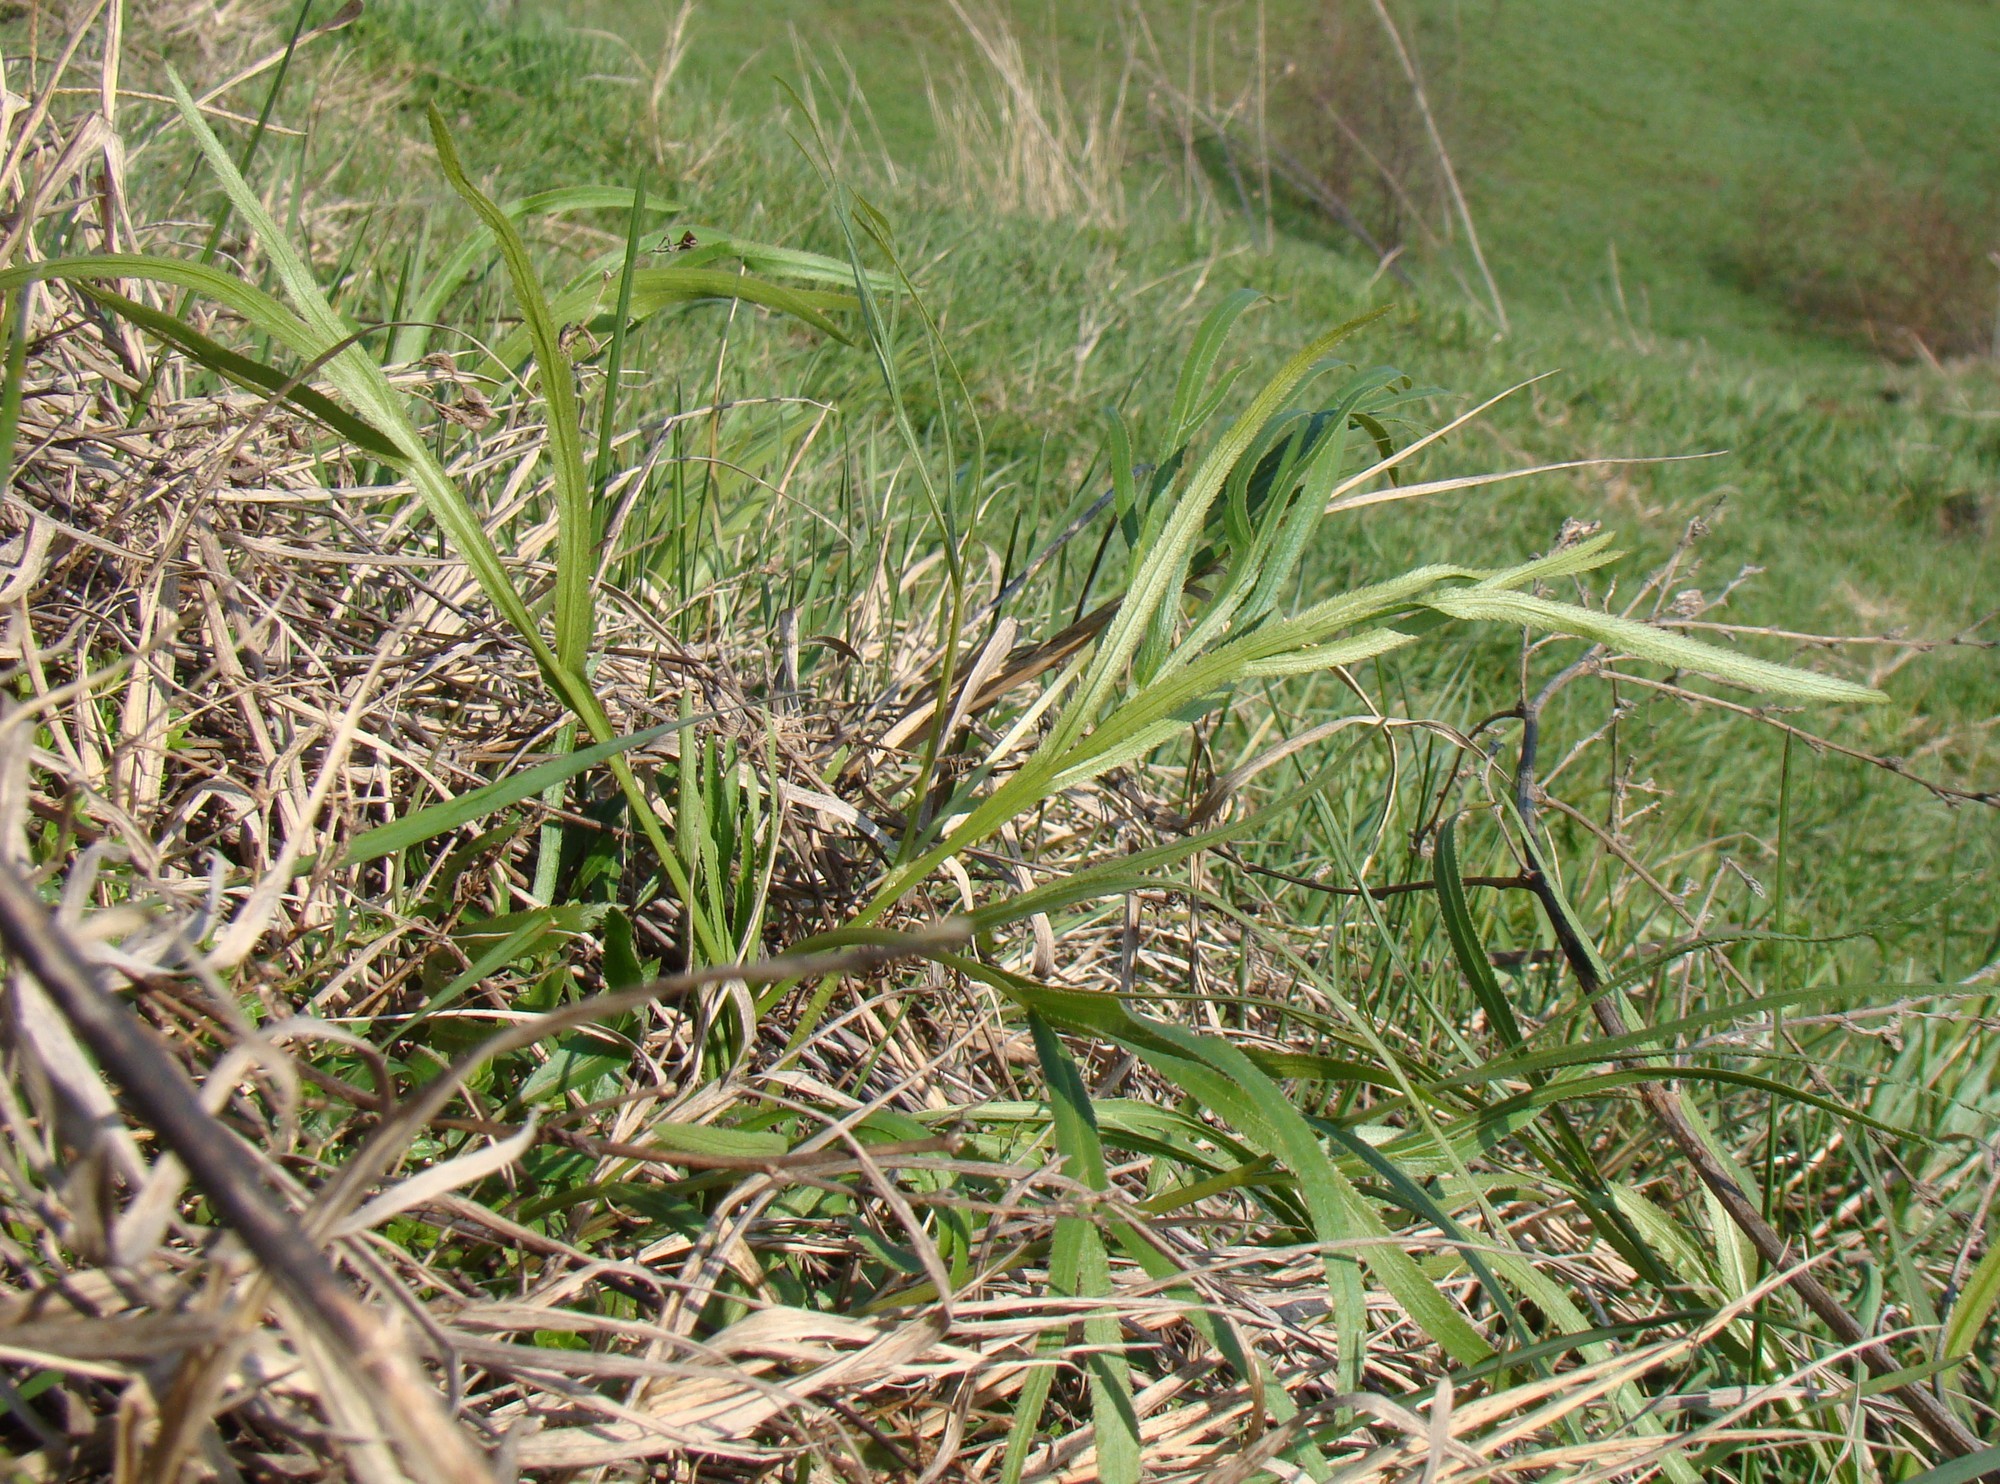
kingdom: Plantae
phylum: Tracheophyta
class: Magnoliopsida
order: Apiales
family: Apiaceae
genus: Falcaria
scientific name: Falcaria vulgaris
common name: Longleaf
